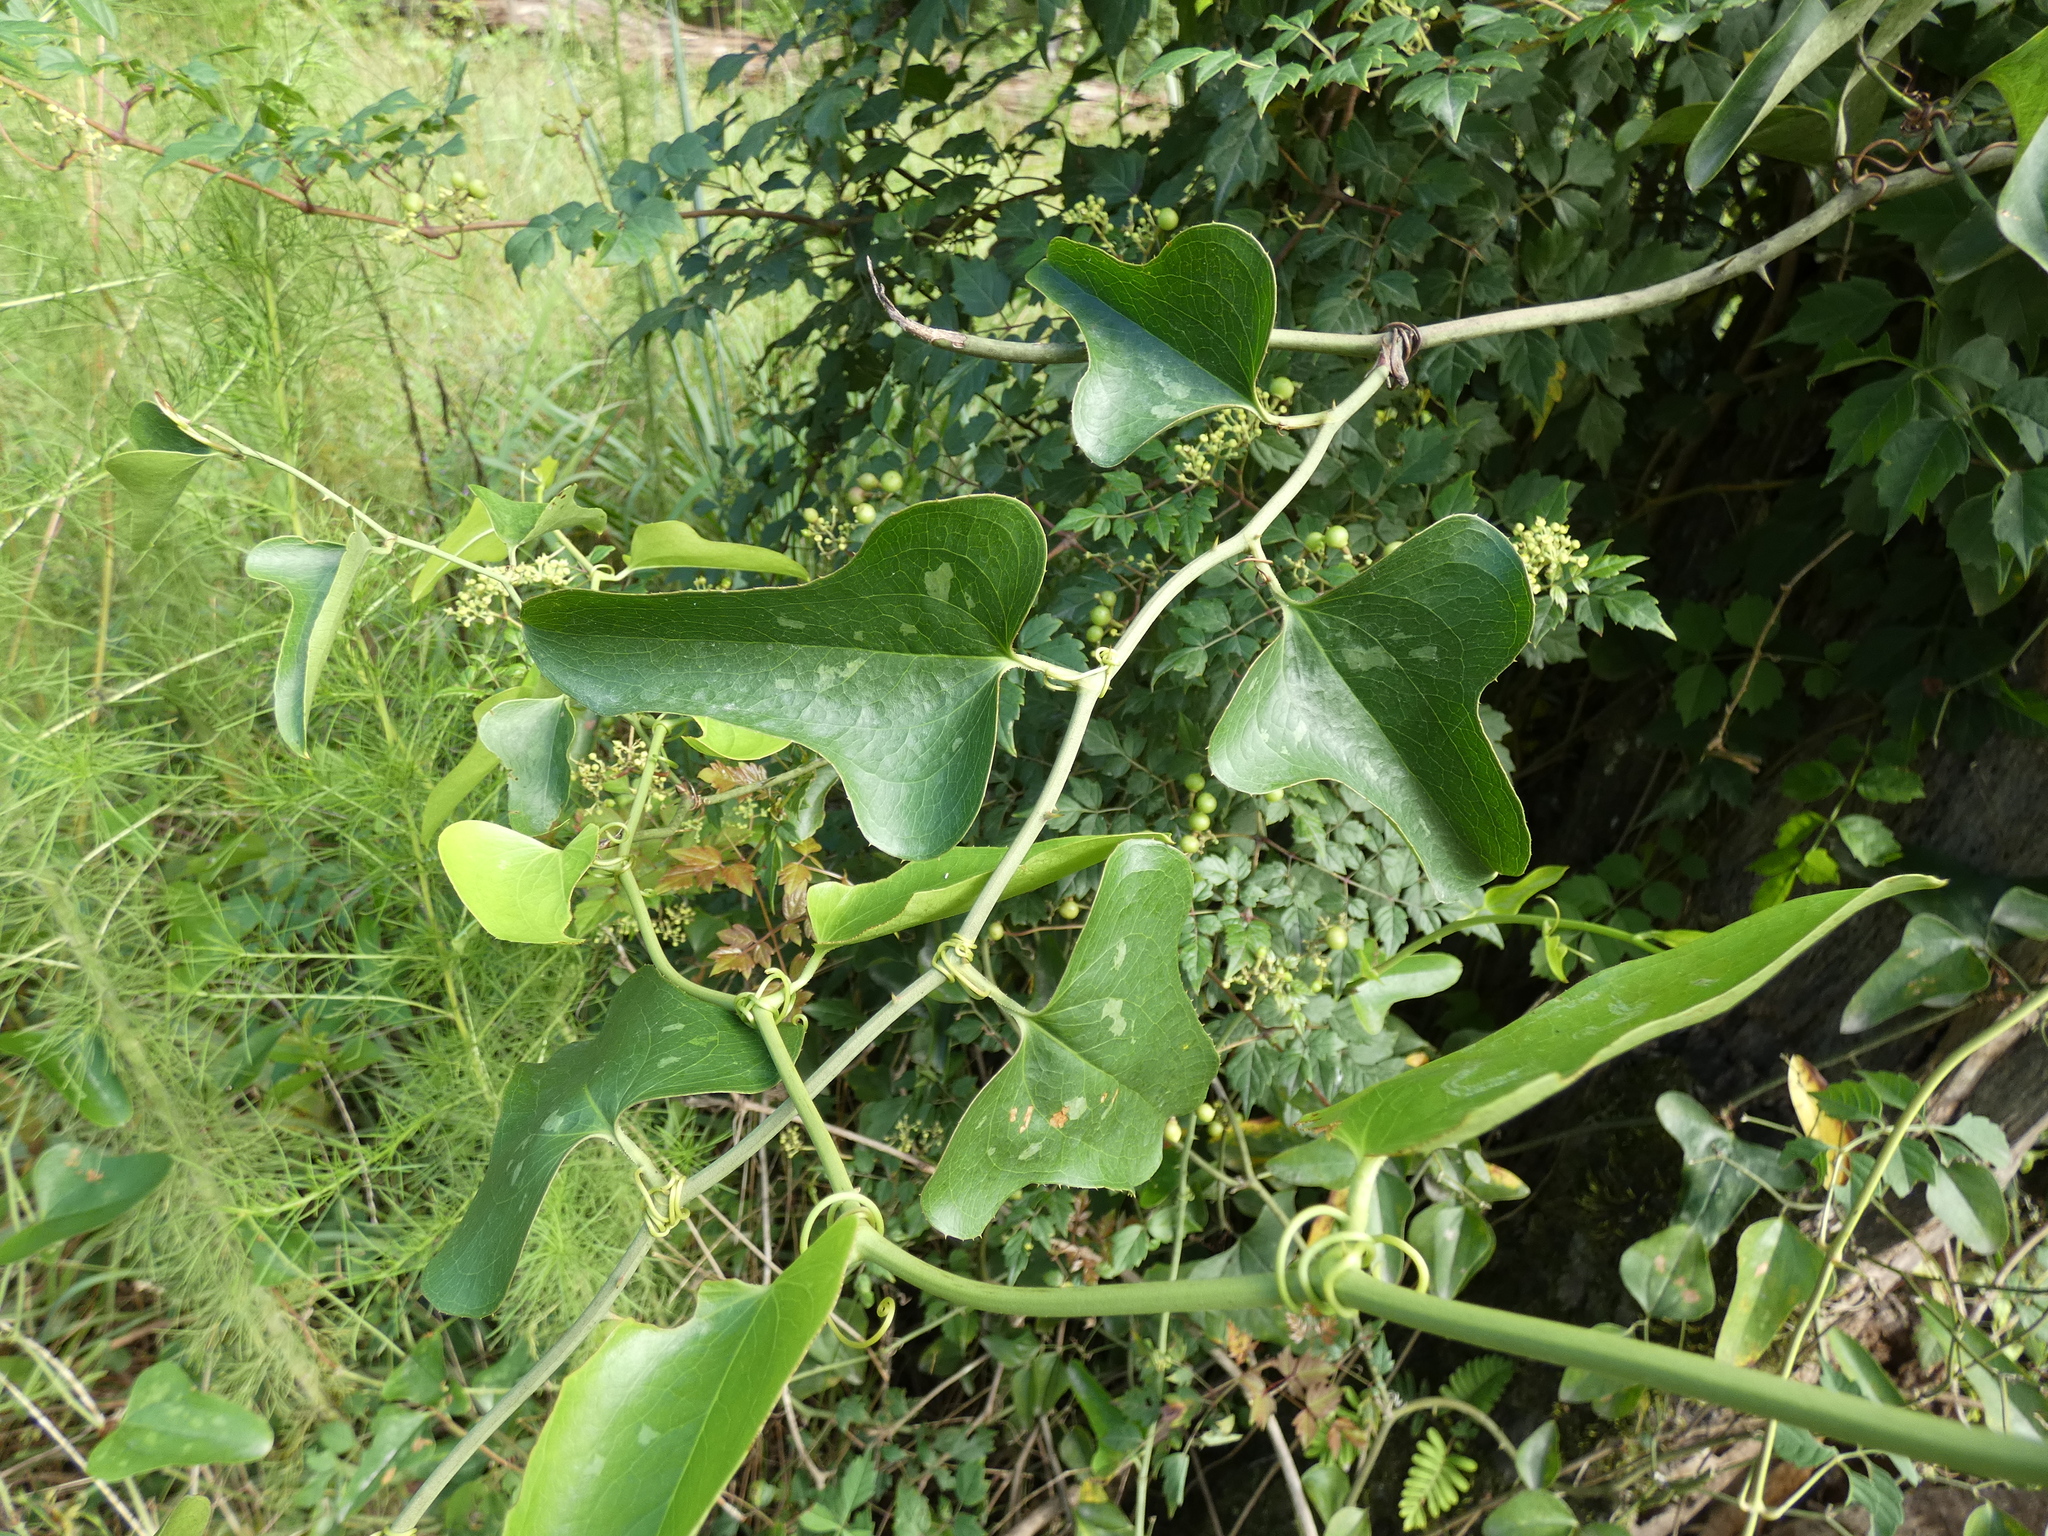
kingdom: Plantae
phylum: Tracheophyta
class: Liliopsida
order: Liliales
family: Smilacaceae
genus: Smilax
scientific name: Smilax bona-nox
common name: Catbrier
